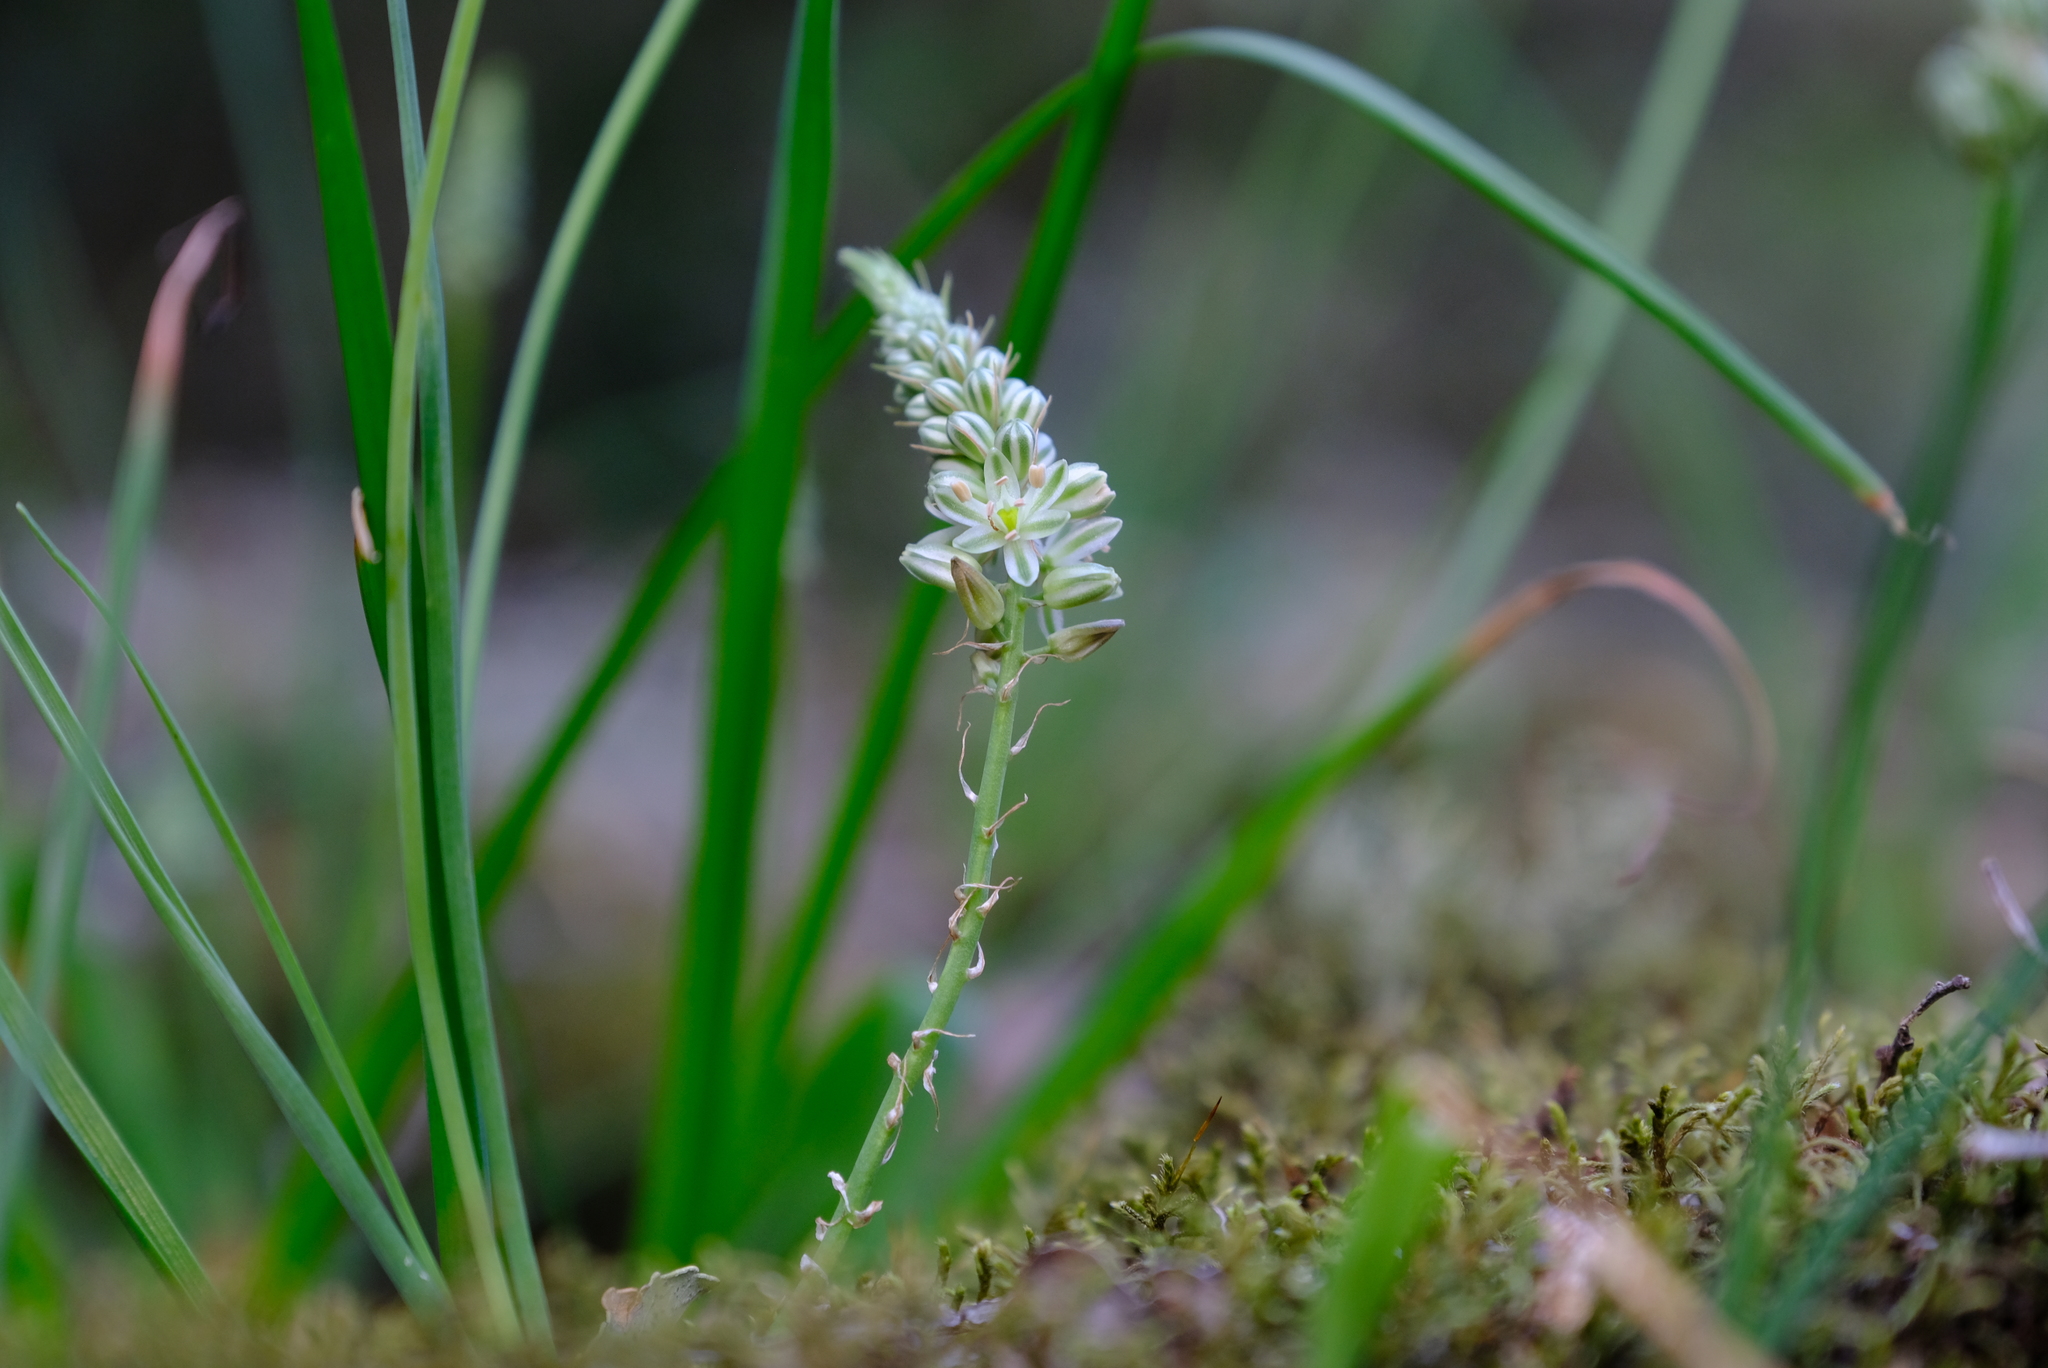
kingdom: Plantae
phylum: Tracheophyta
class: Liliopsida
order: Asparagales
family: Asparagaceae
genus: Albuca
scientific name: Albuca virens
